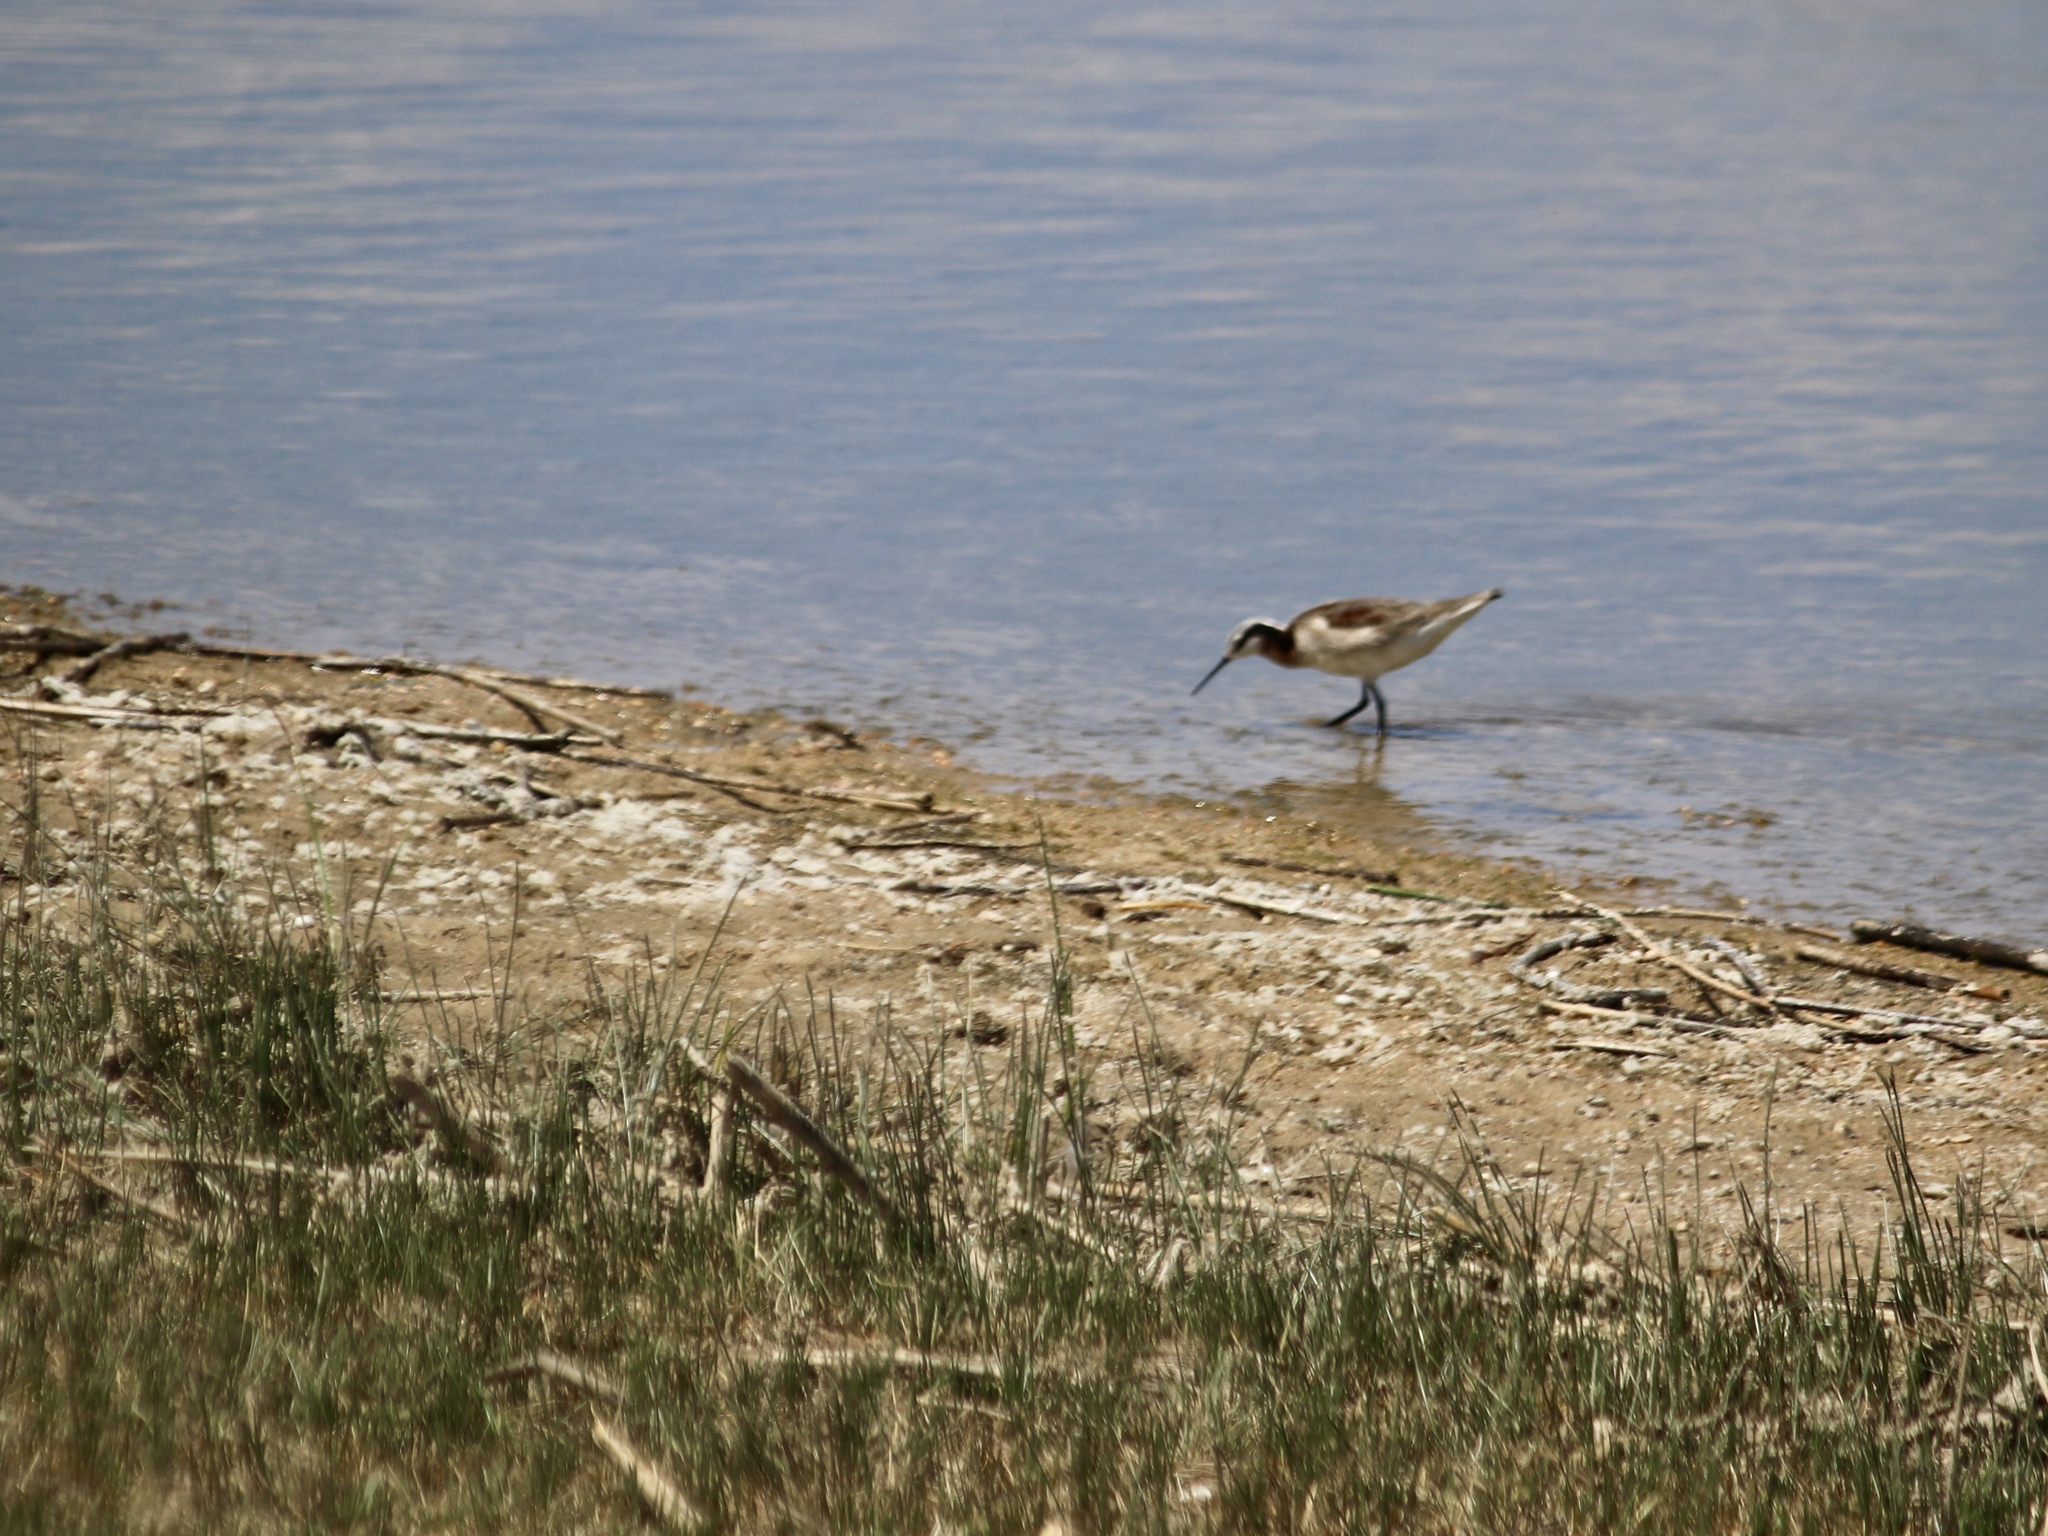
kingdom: Animalia
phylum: Chordata
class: Aves
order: Charadriiformes
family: Scolopacidae
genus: Phalaropus
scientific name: Phalaropus tricolor
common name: Wilson's phalarope
